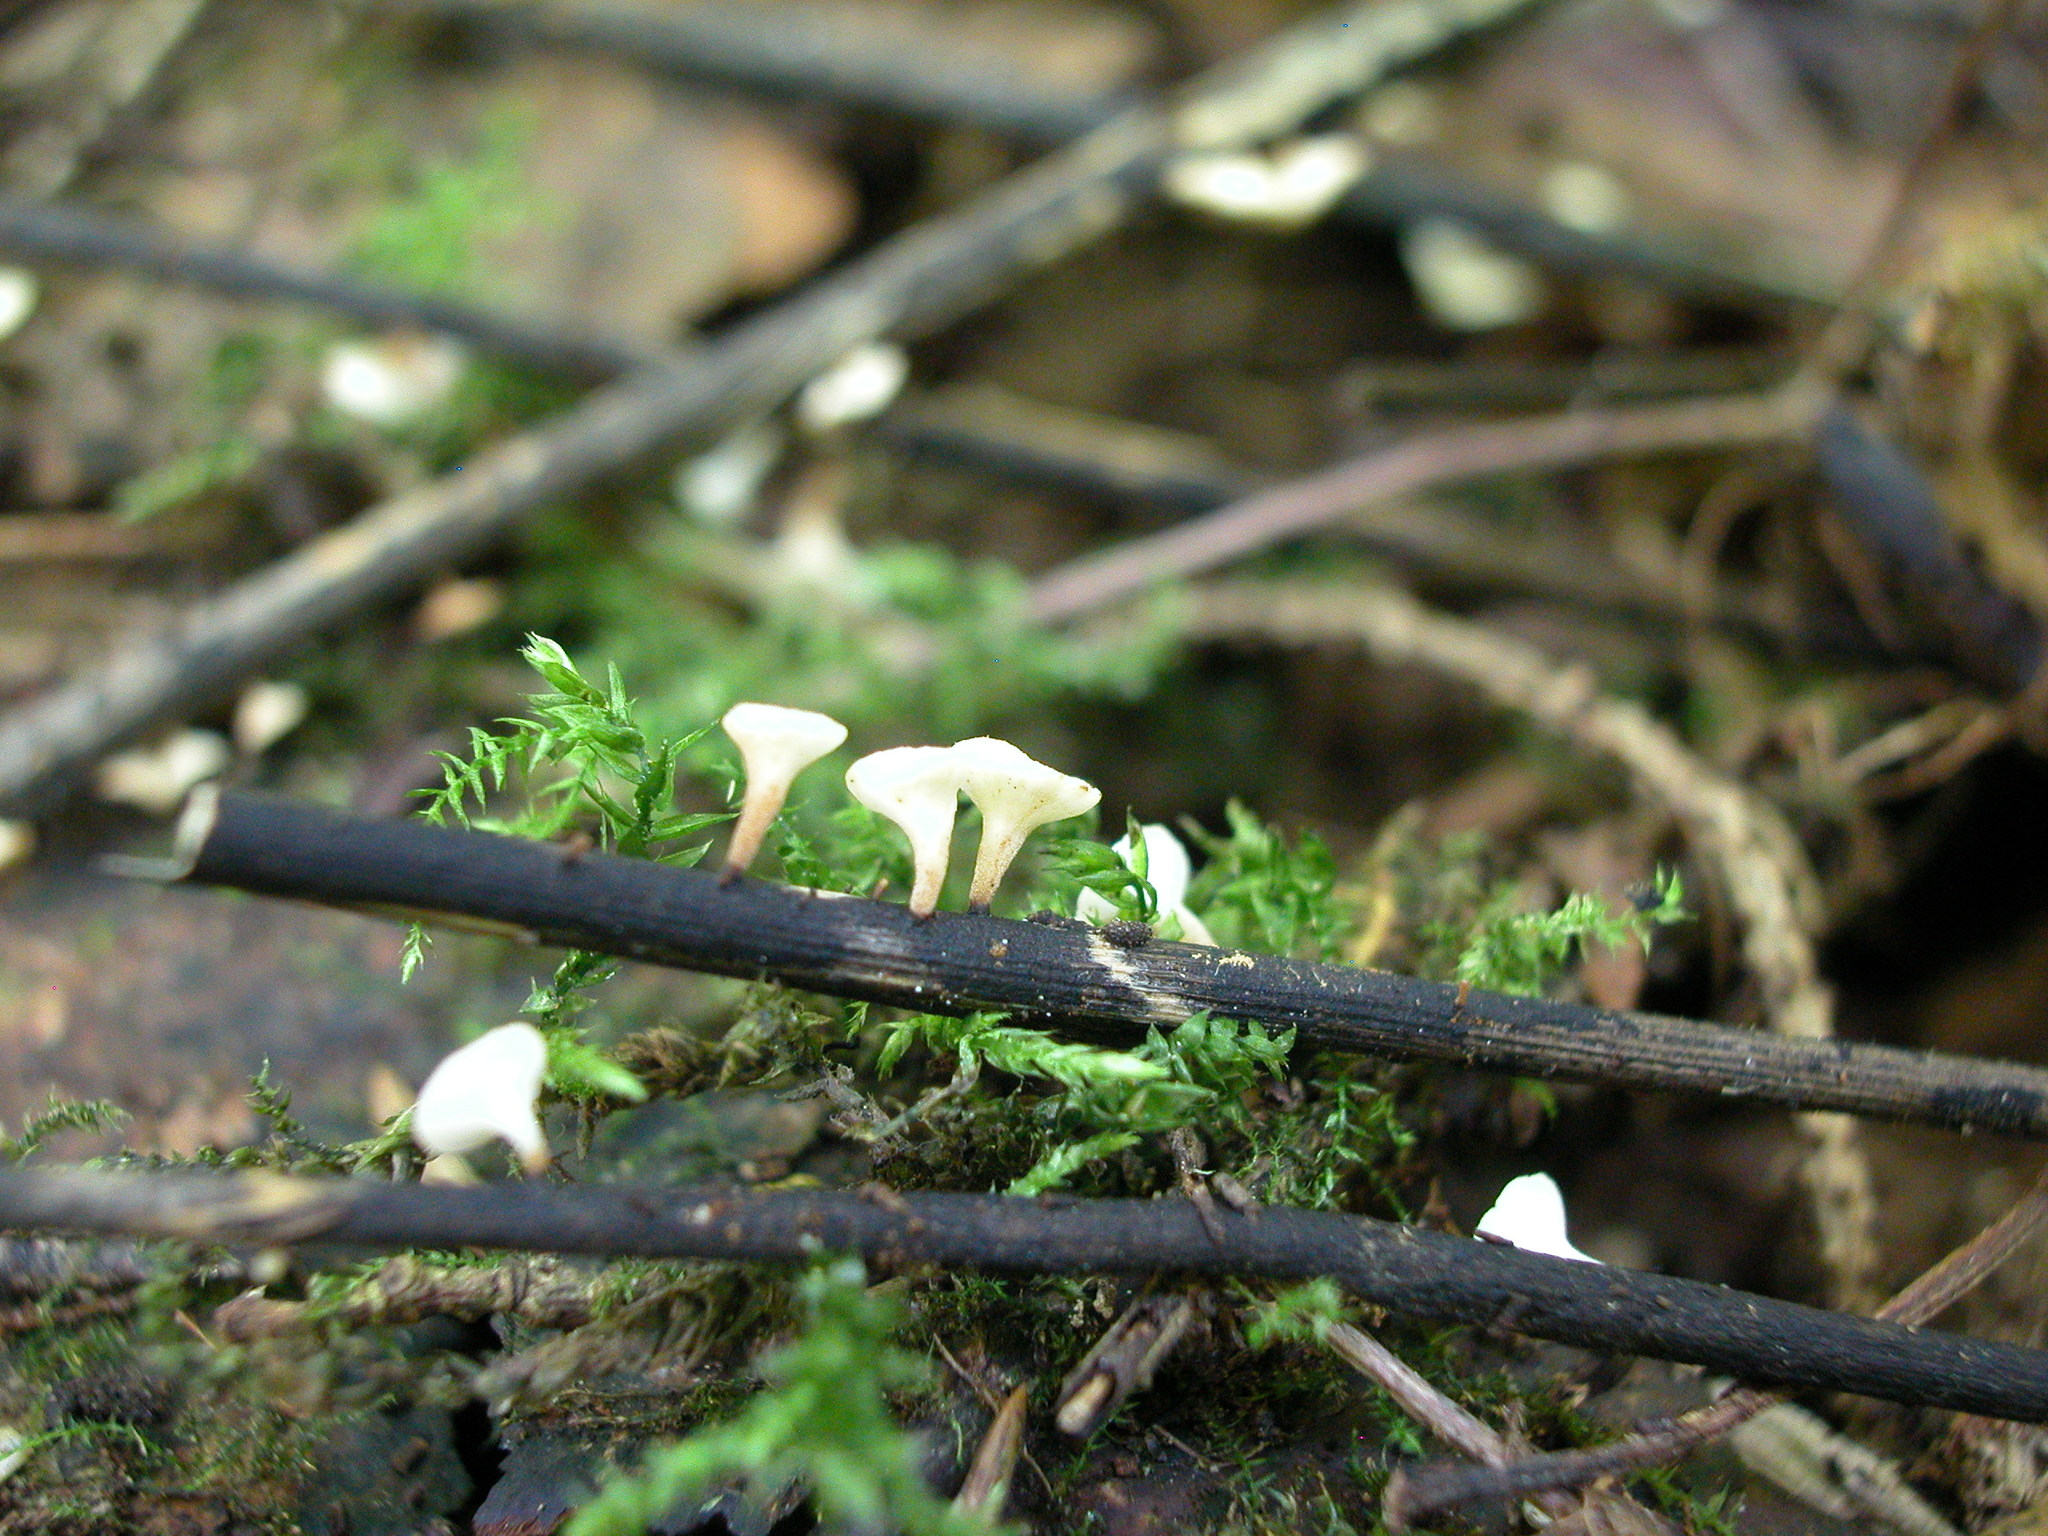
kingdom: Fungi
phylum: Ascomycota
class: Leotiomycetes
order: Helotiales
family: Helotiaceae
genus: Hymenoscyphus
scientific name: Hymenoscyphus albidus
